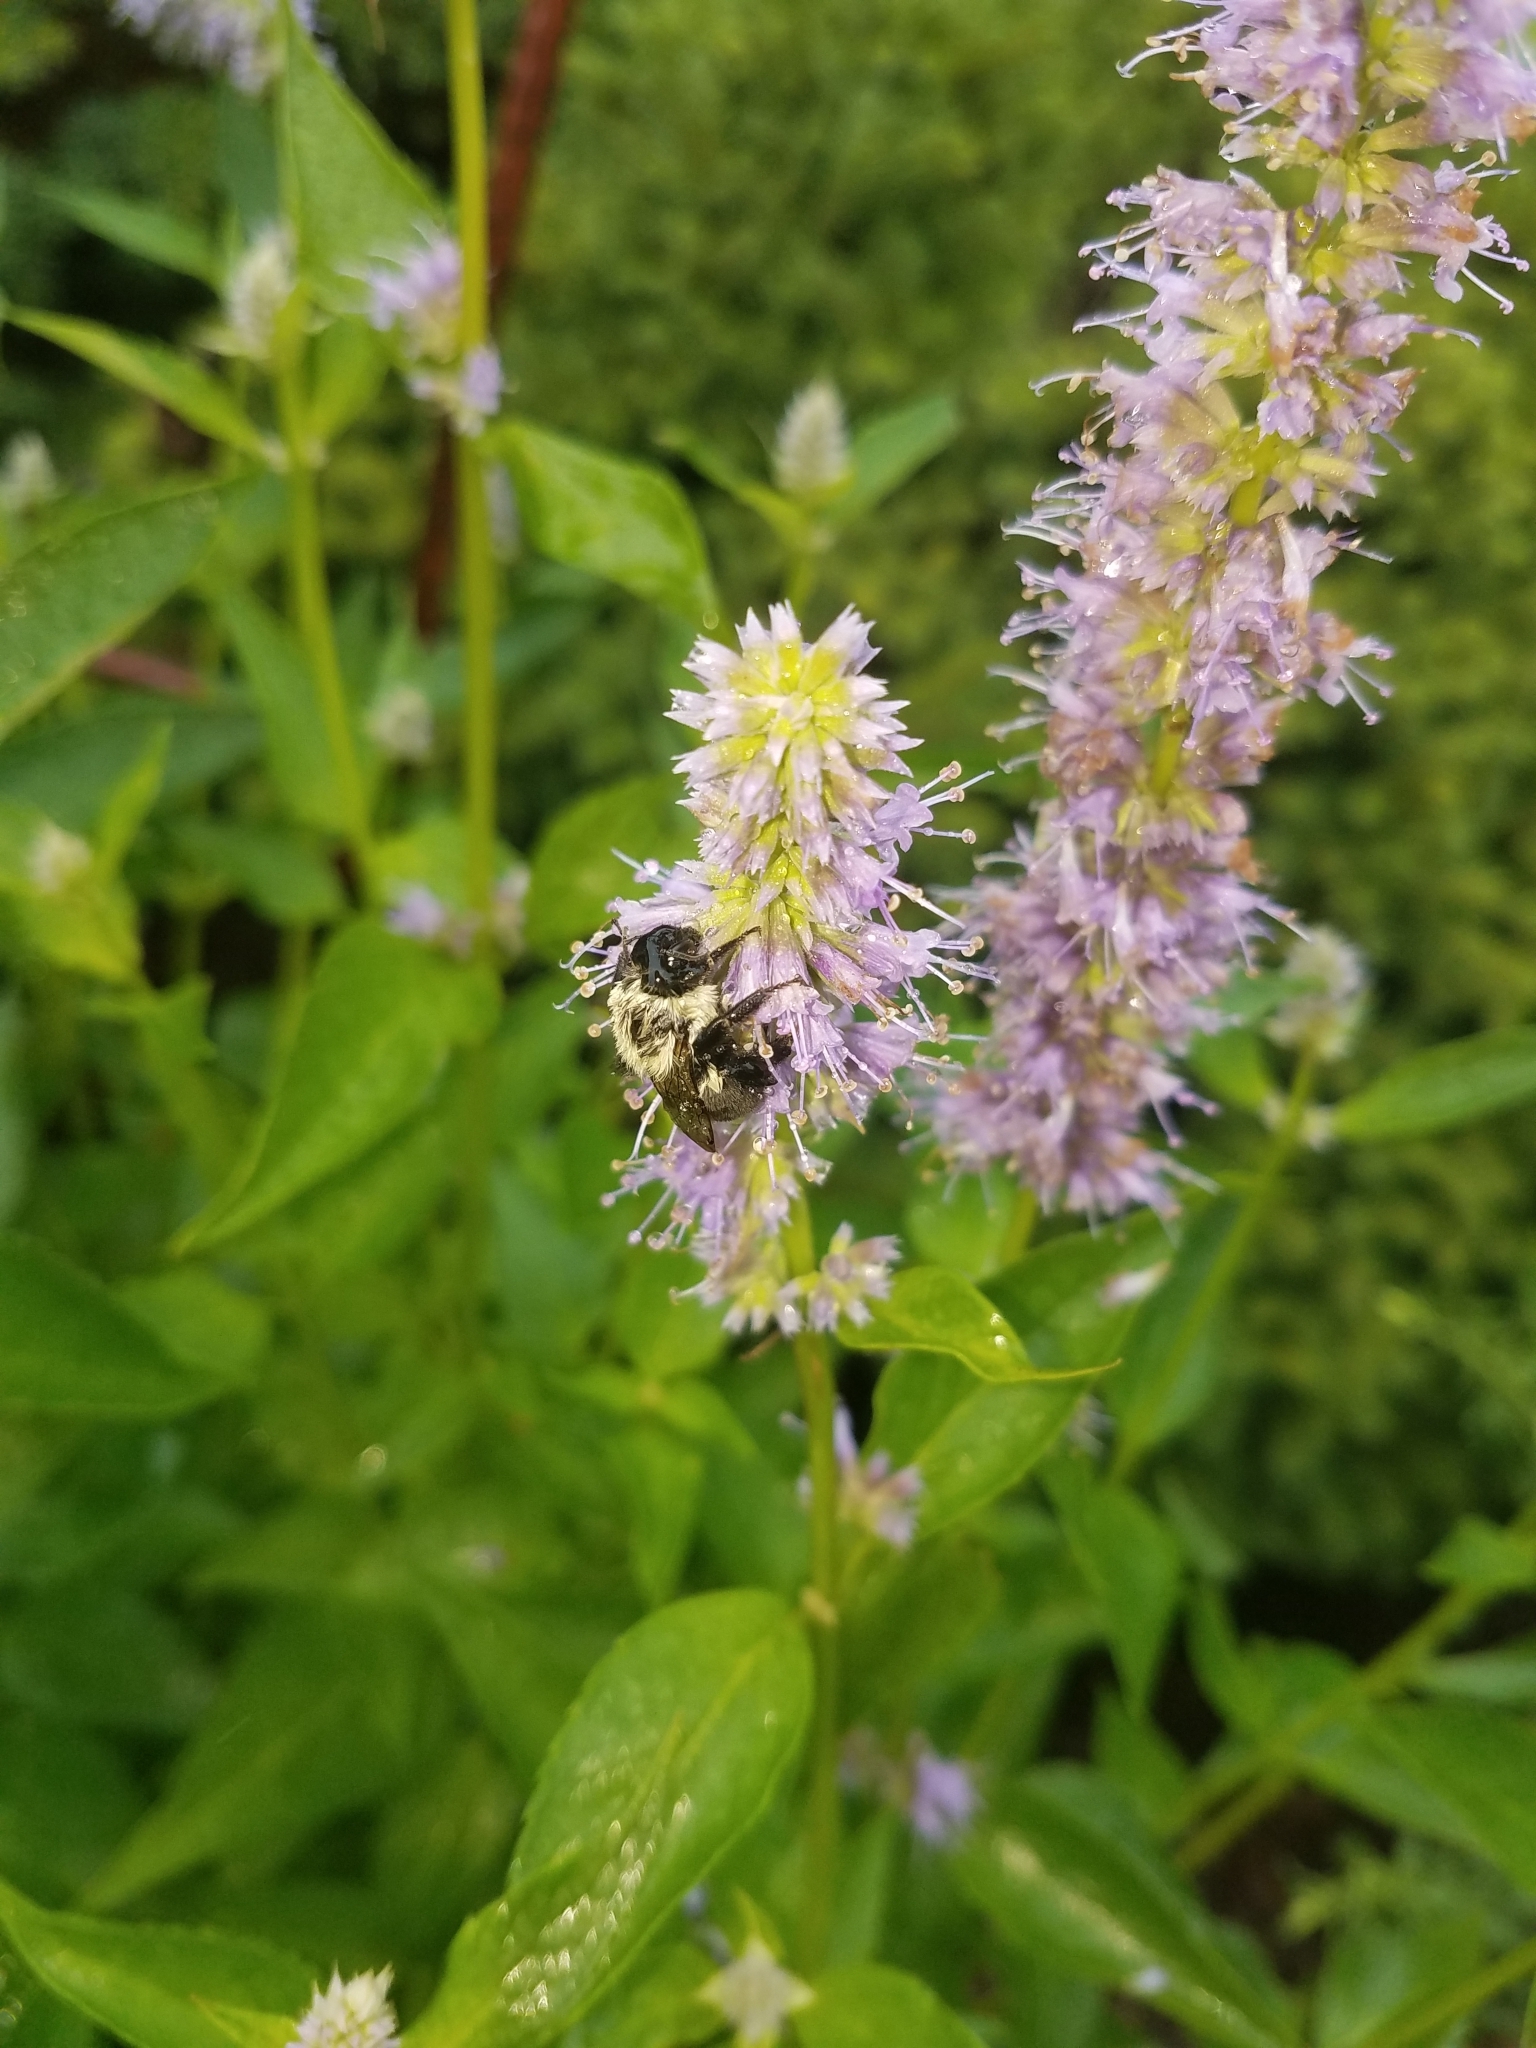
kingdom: Animalia
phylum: Arthropoda
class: Insecta
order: Hymenoptera
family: Apidae
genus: Bombus
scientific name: Bombus impatiens
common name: Common eastern bumble bee
